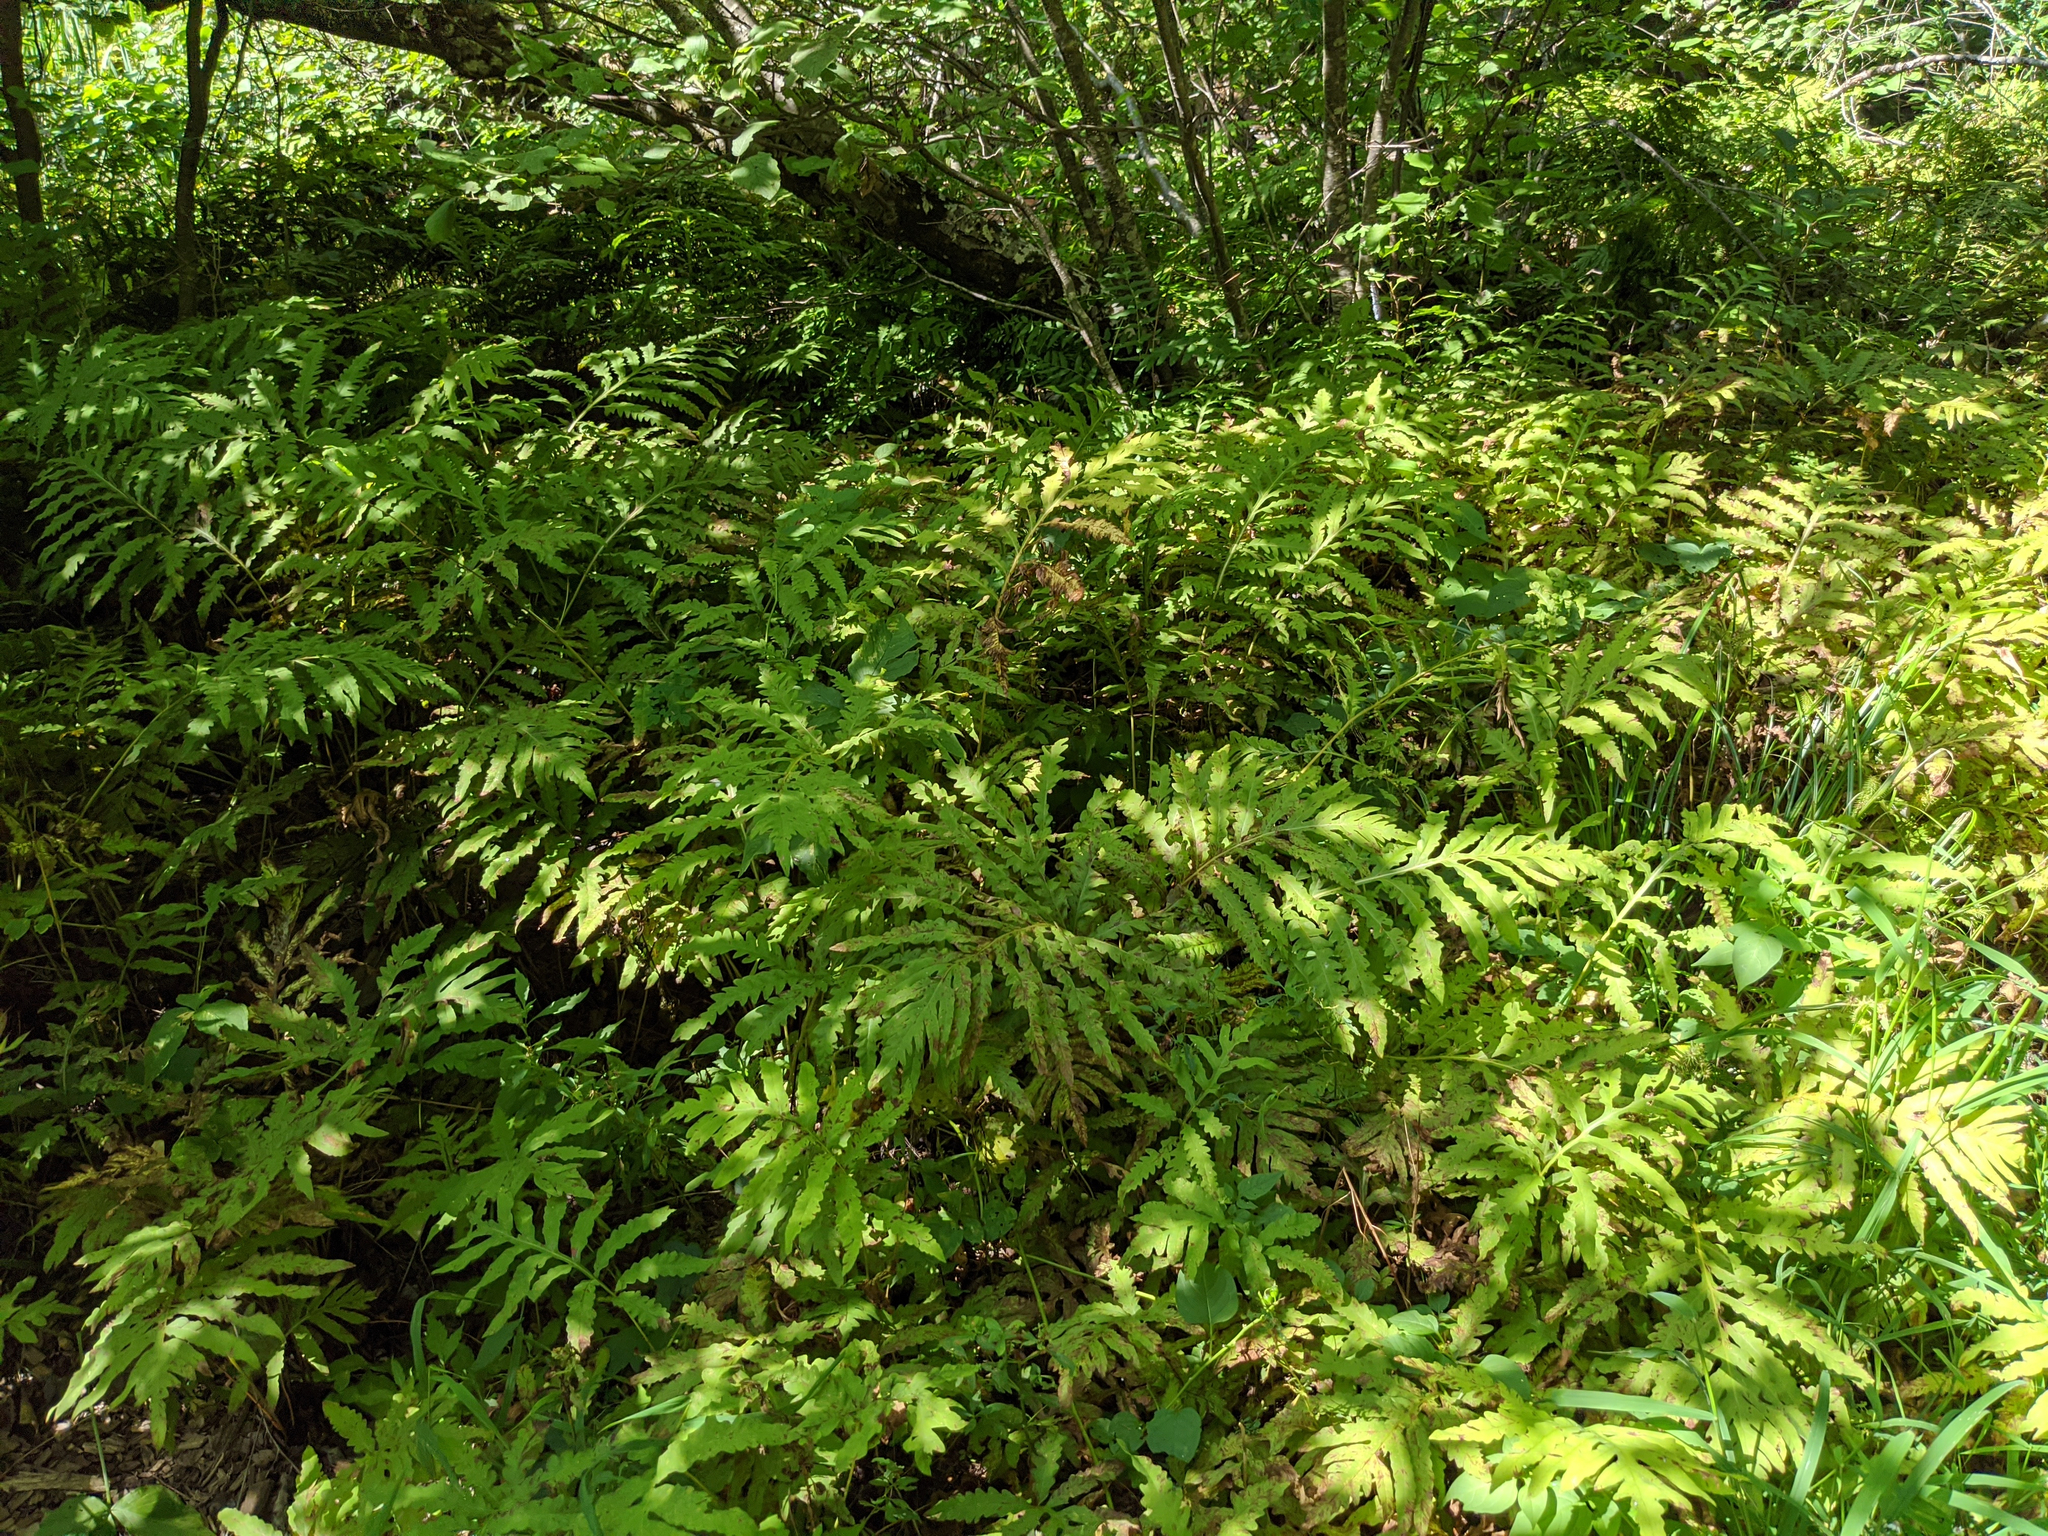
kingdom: Plantae
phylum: Tracheophyta
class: Polypodiopsida
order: Polypodiales
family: Onocleaceae
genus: Onoclea
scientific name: Onoclea sensibilis
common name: Sensitive fern
